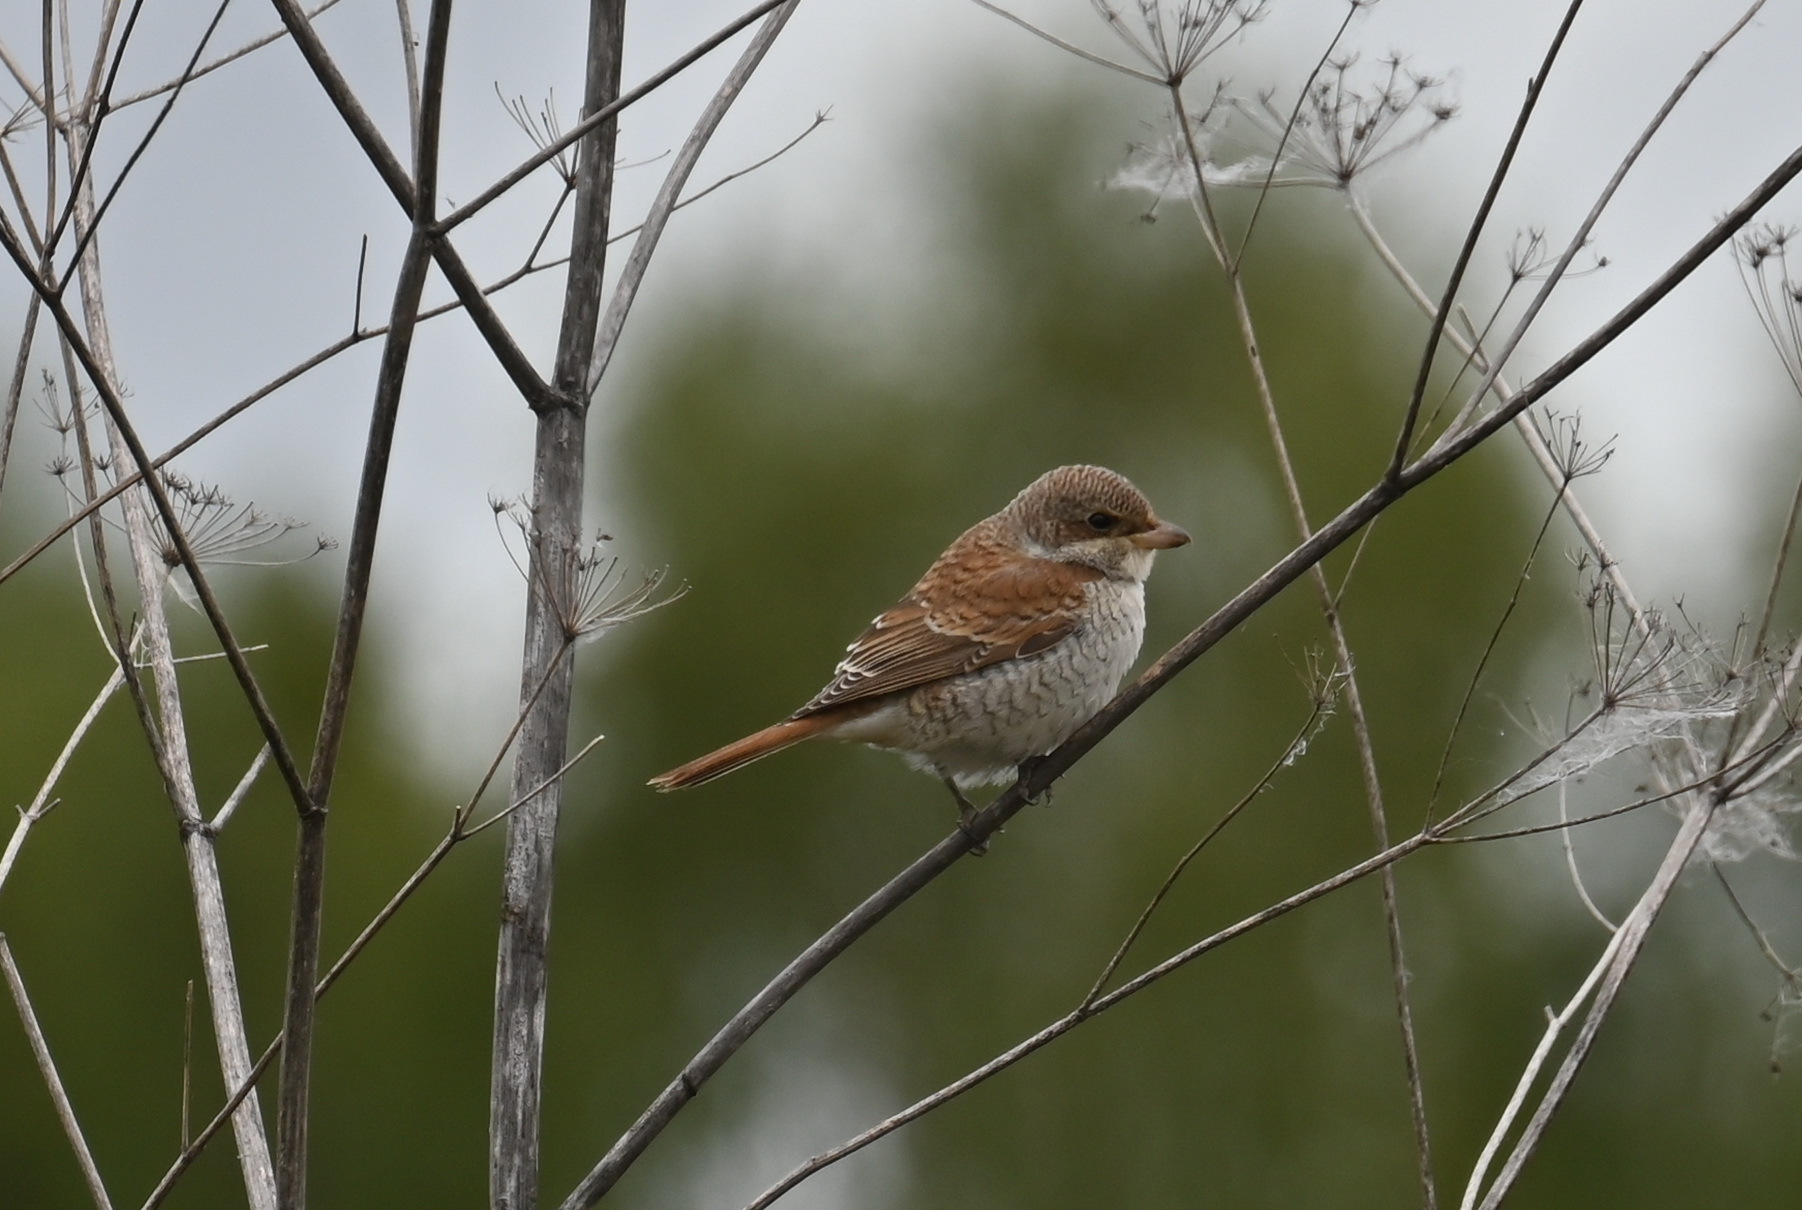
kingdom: Animalia
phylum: Chordata
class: Aves
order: Passeriformes
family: Laniidae
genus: Lanius
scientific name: Lanius collurio
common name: Red-backed shrike
